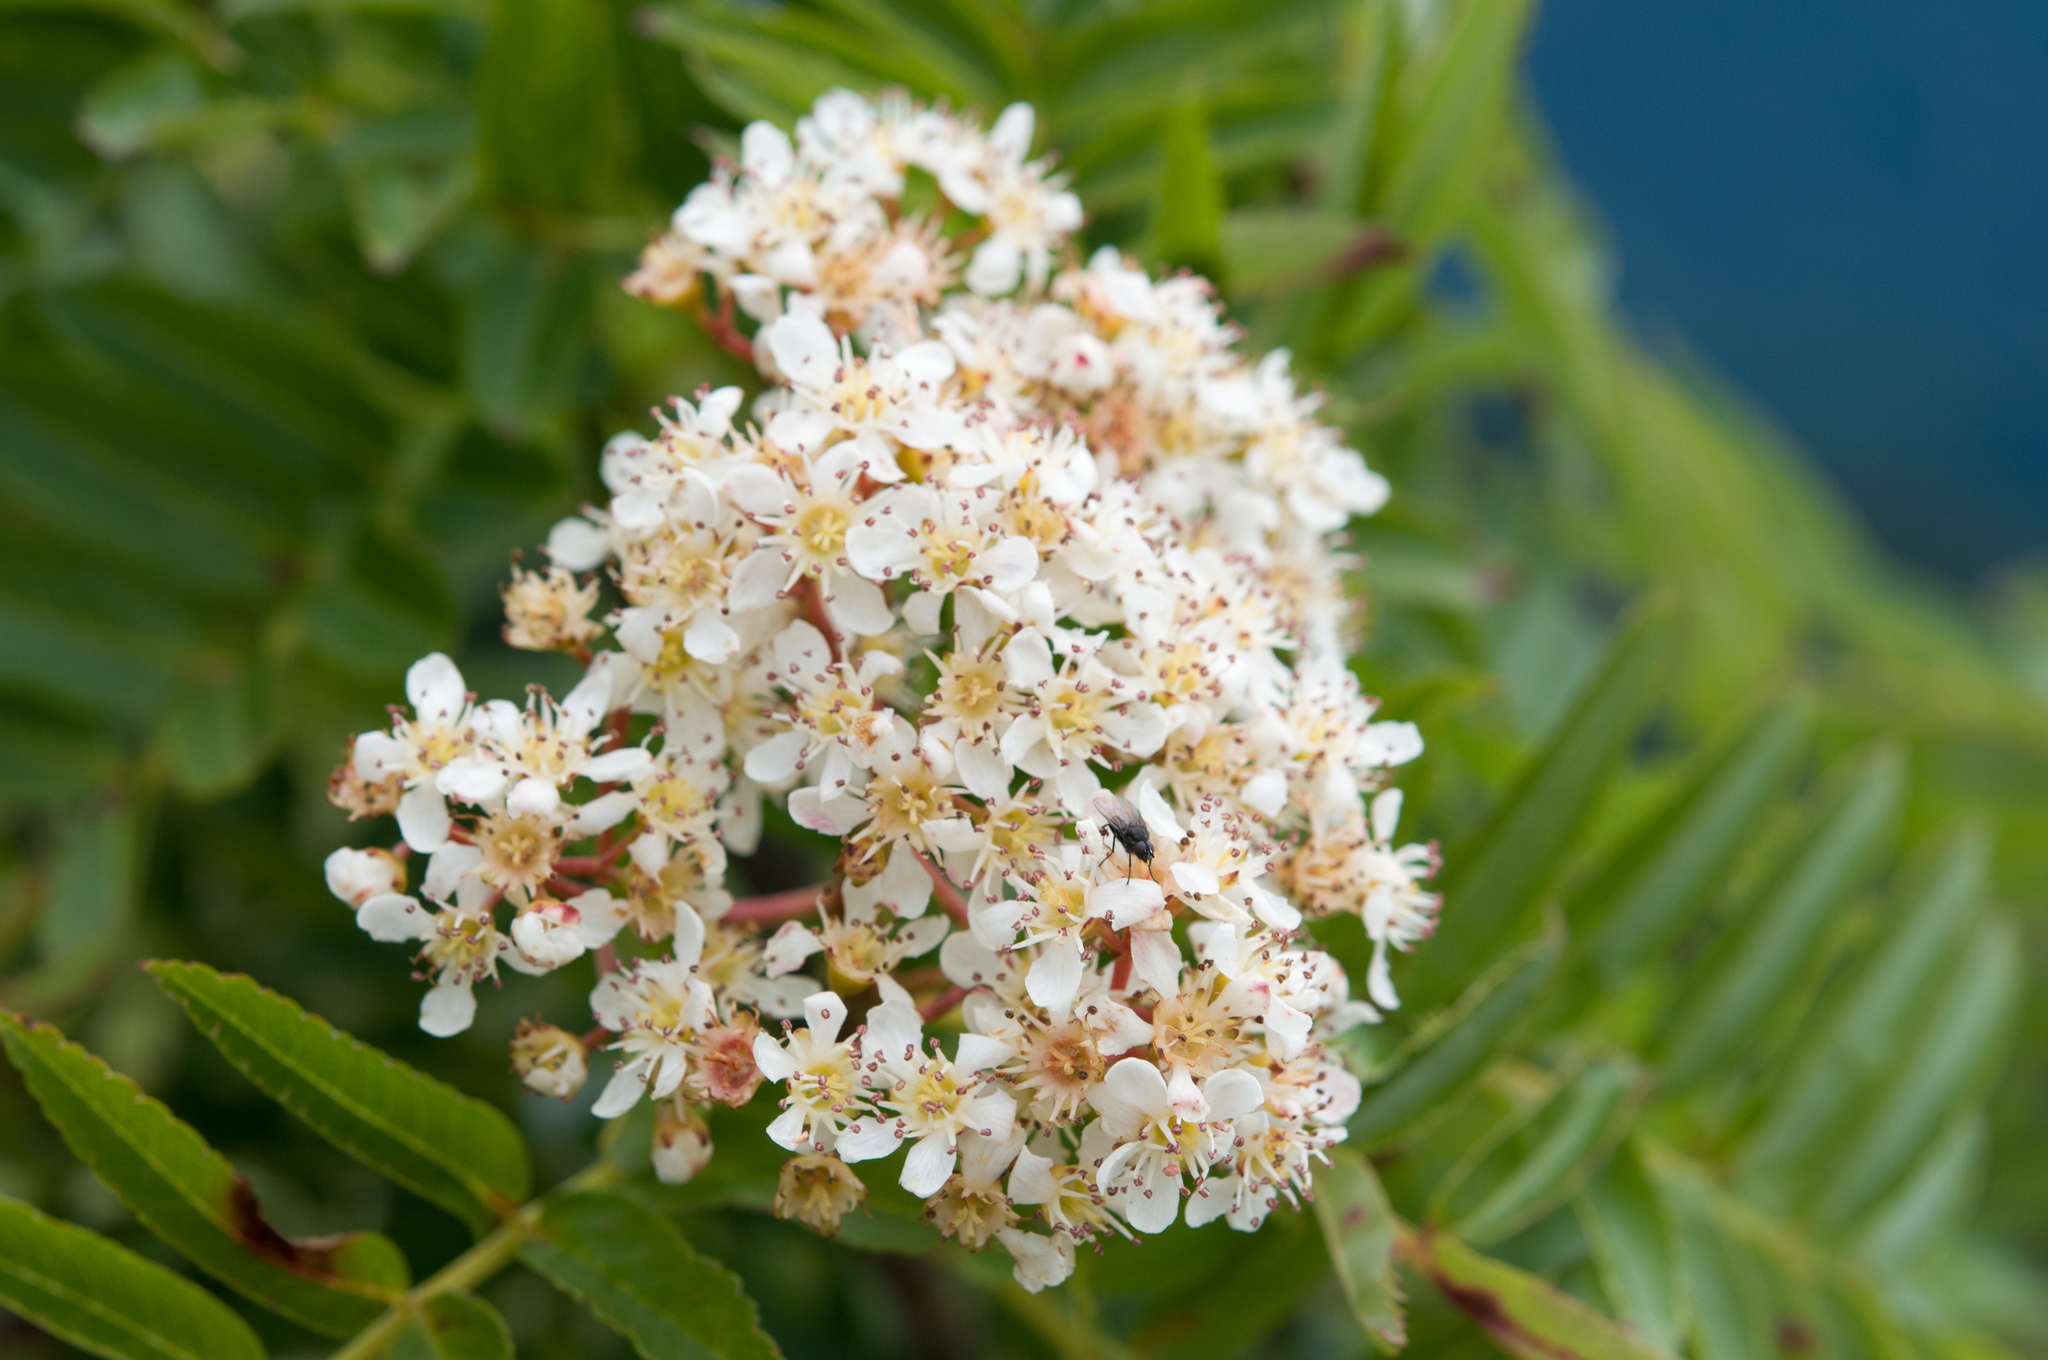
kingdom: Plantae
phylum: Tracheophyta
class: Magnoliopsida
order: Rosales
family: Rosaceae
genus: Sorbus
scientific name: Sorbus randaiensis
